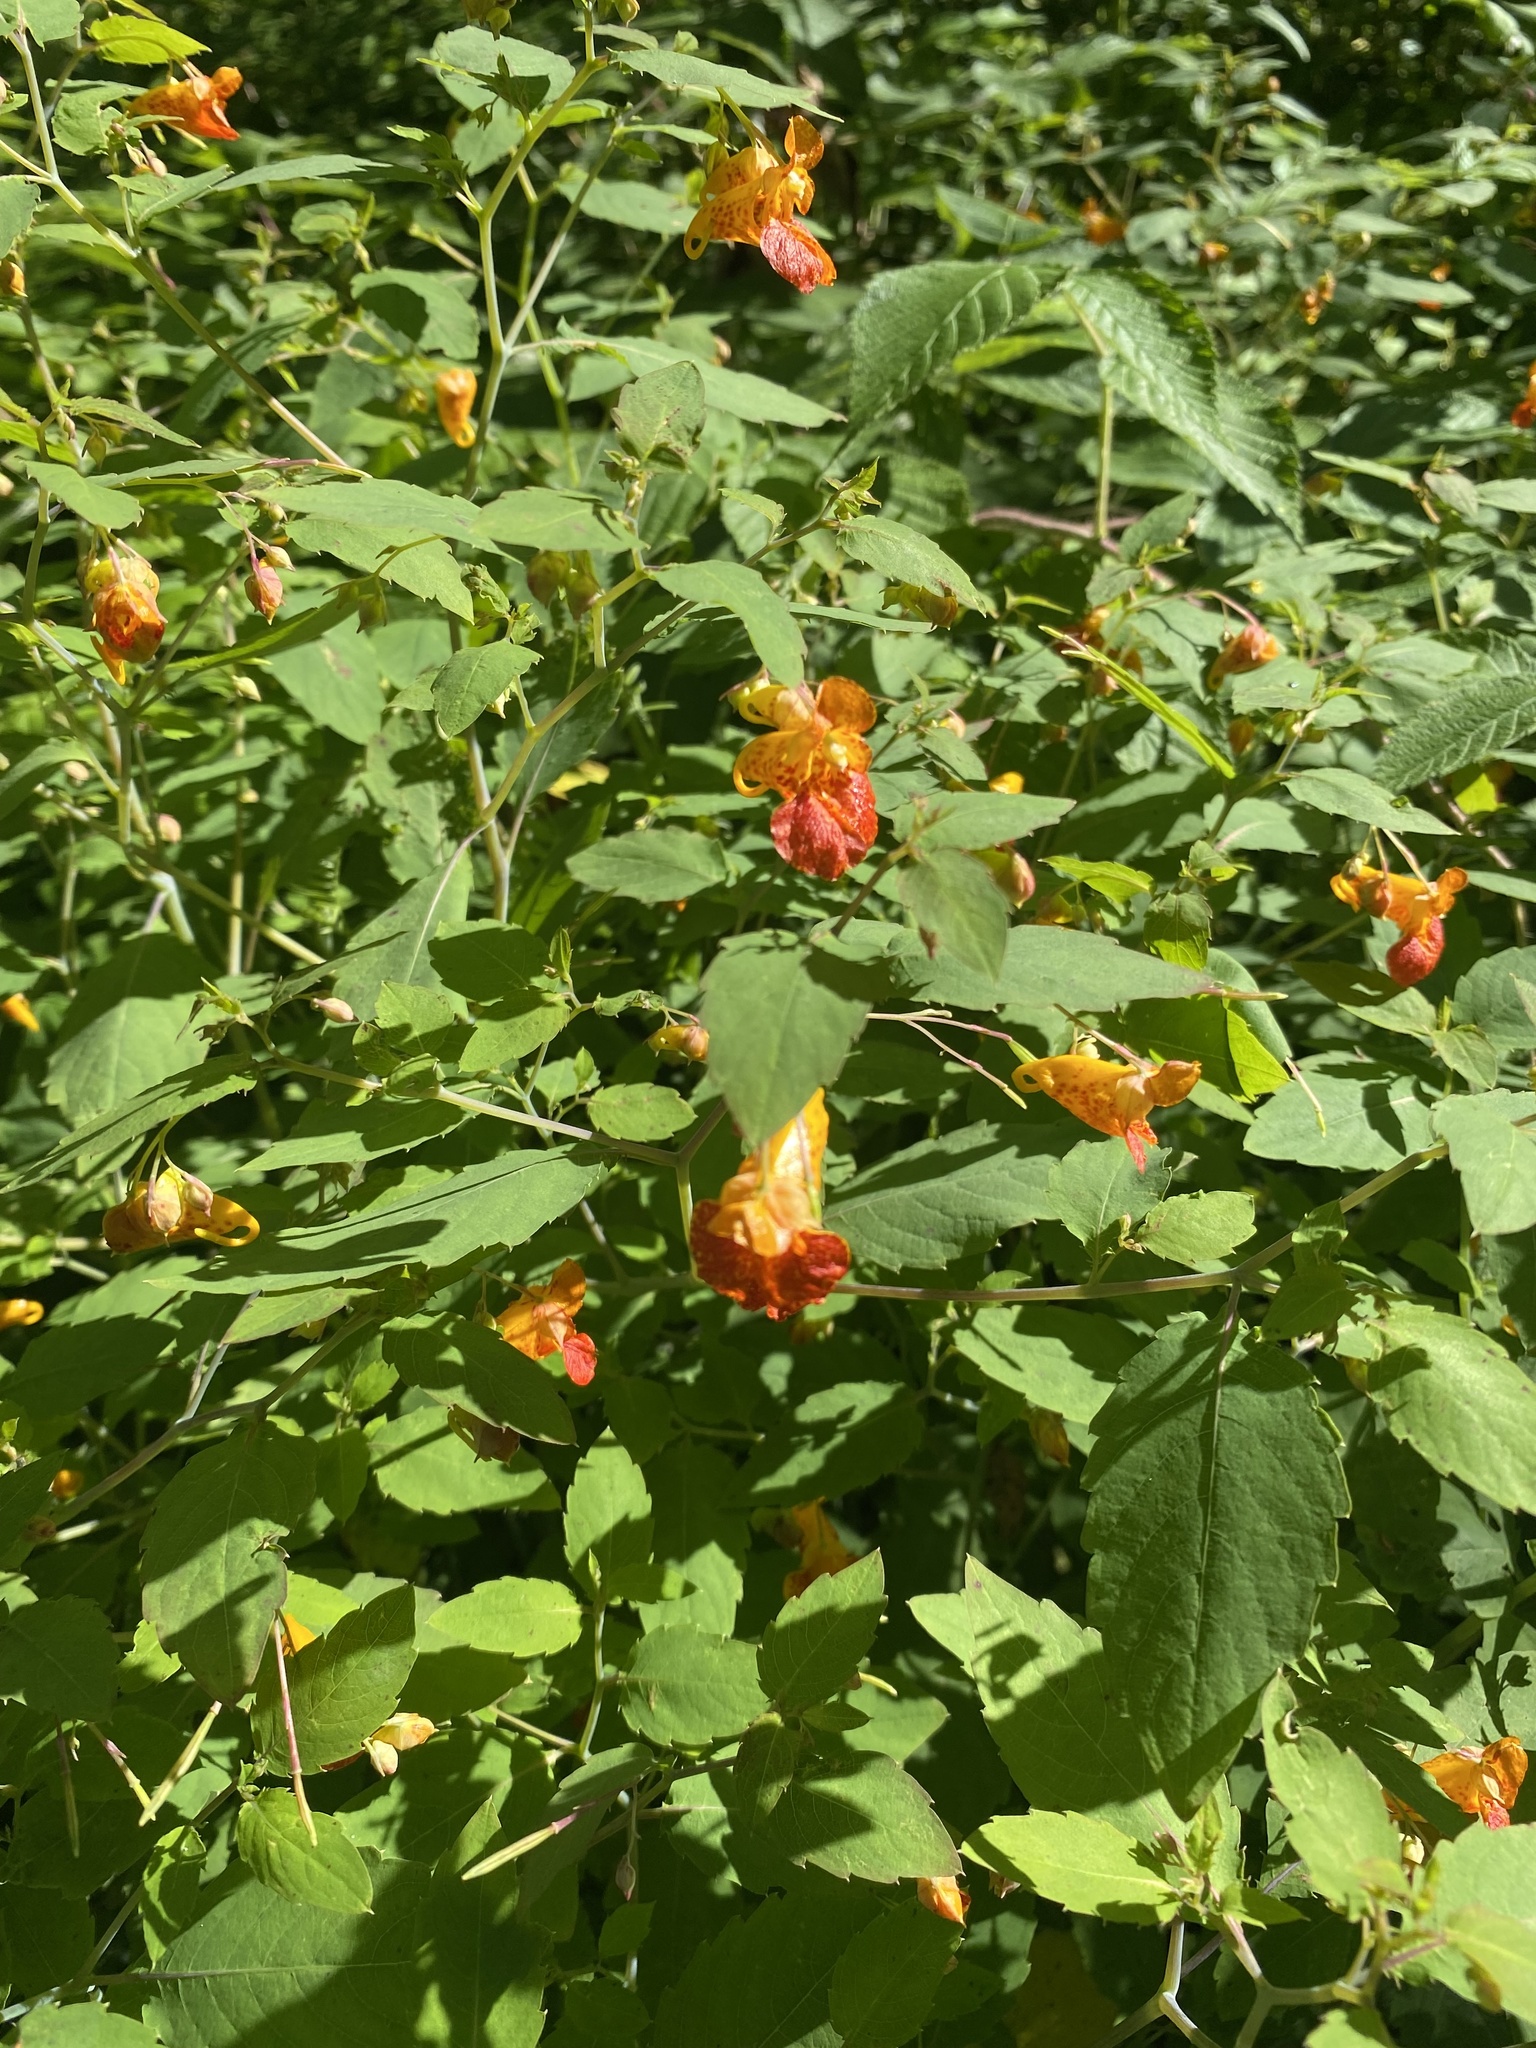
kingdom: Plantae
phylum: Tracheophyta
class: Magnoliopsida
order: Ericales
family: Balsaminaceae
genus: Impatiens
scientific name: Impatiens capensis
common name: Orange balsam
